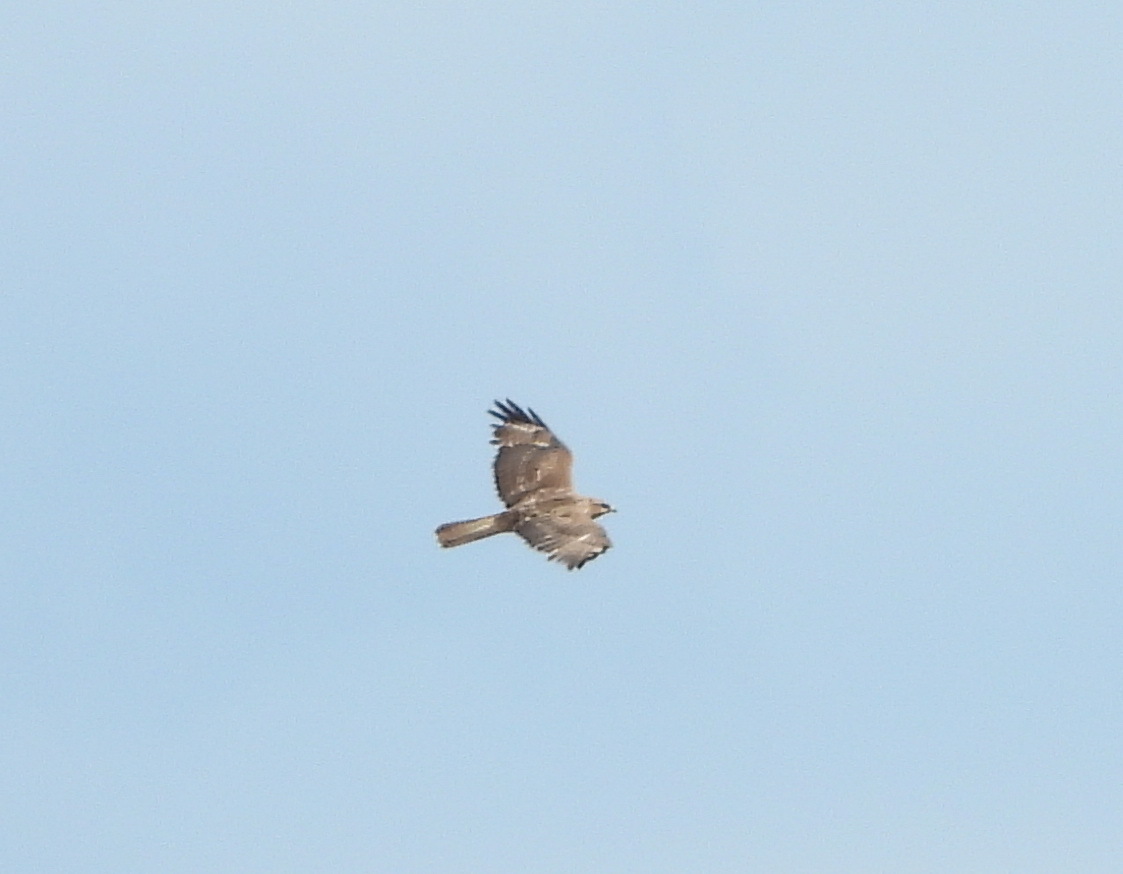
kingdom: Animalia
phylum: Chordata
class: Aves
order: Accipitriformes
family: Accipitridae
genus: Buteo
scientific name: Buteo buteo
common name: Common buzzard
